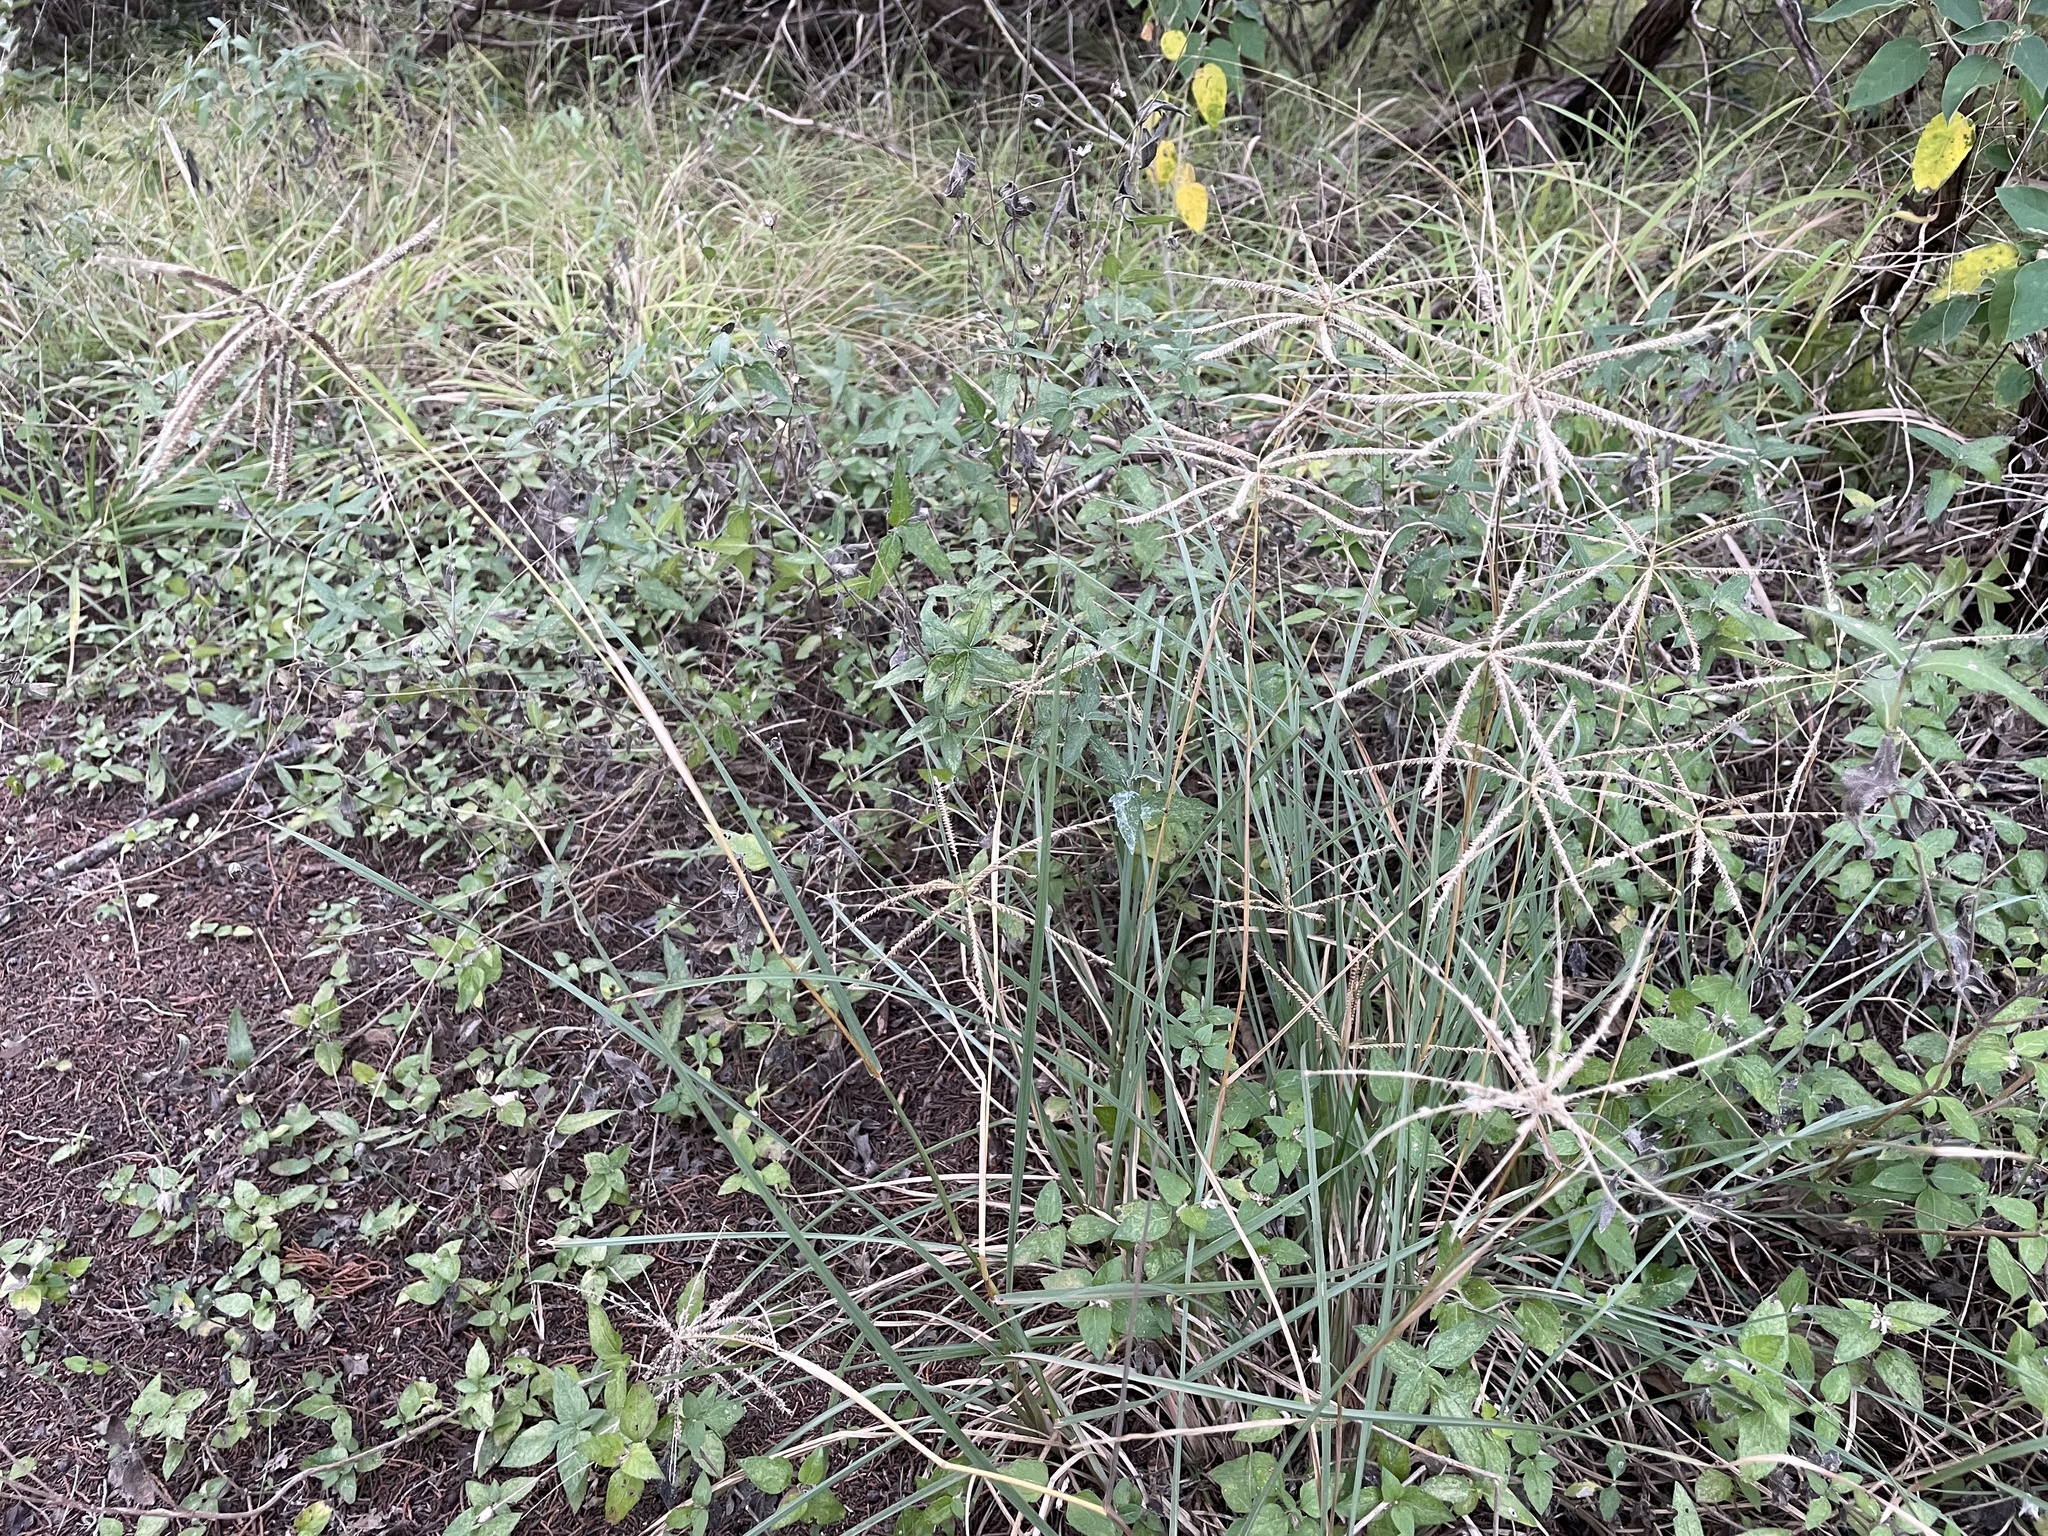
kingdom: Plantae
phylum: Tracheophyta
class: Liliopsida
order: Poales
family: Poaceae
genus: Chloris
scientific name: Chloris subdolichostachya
